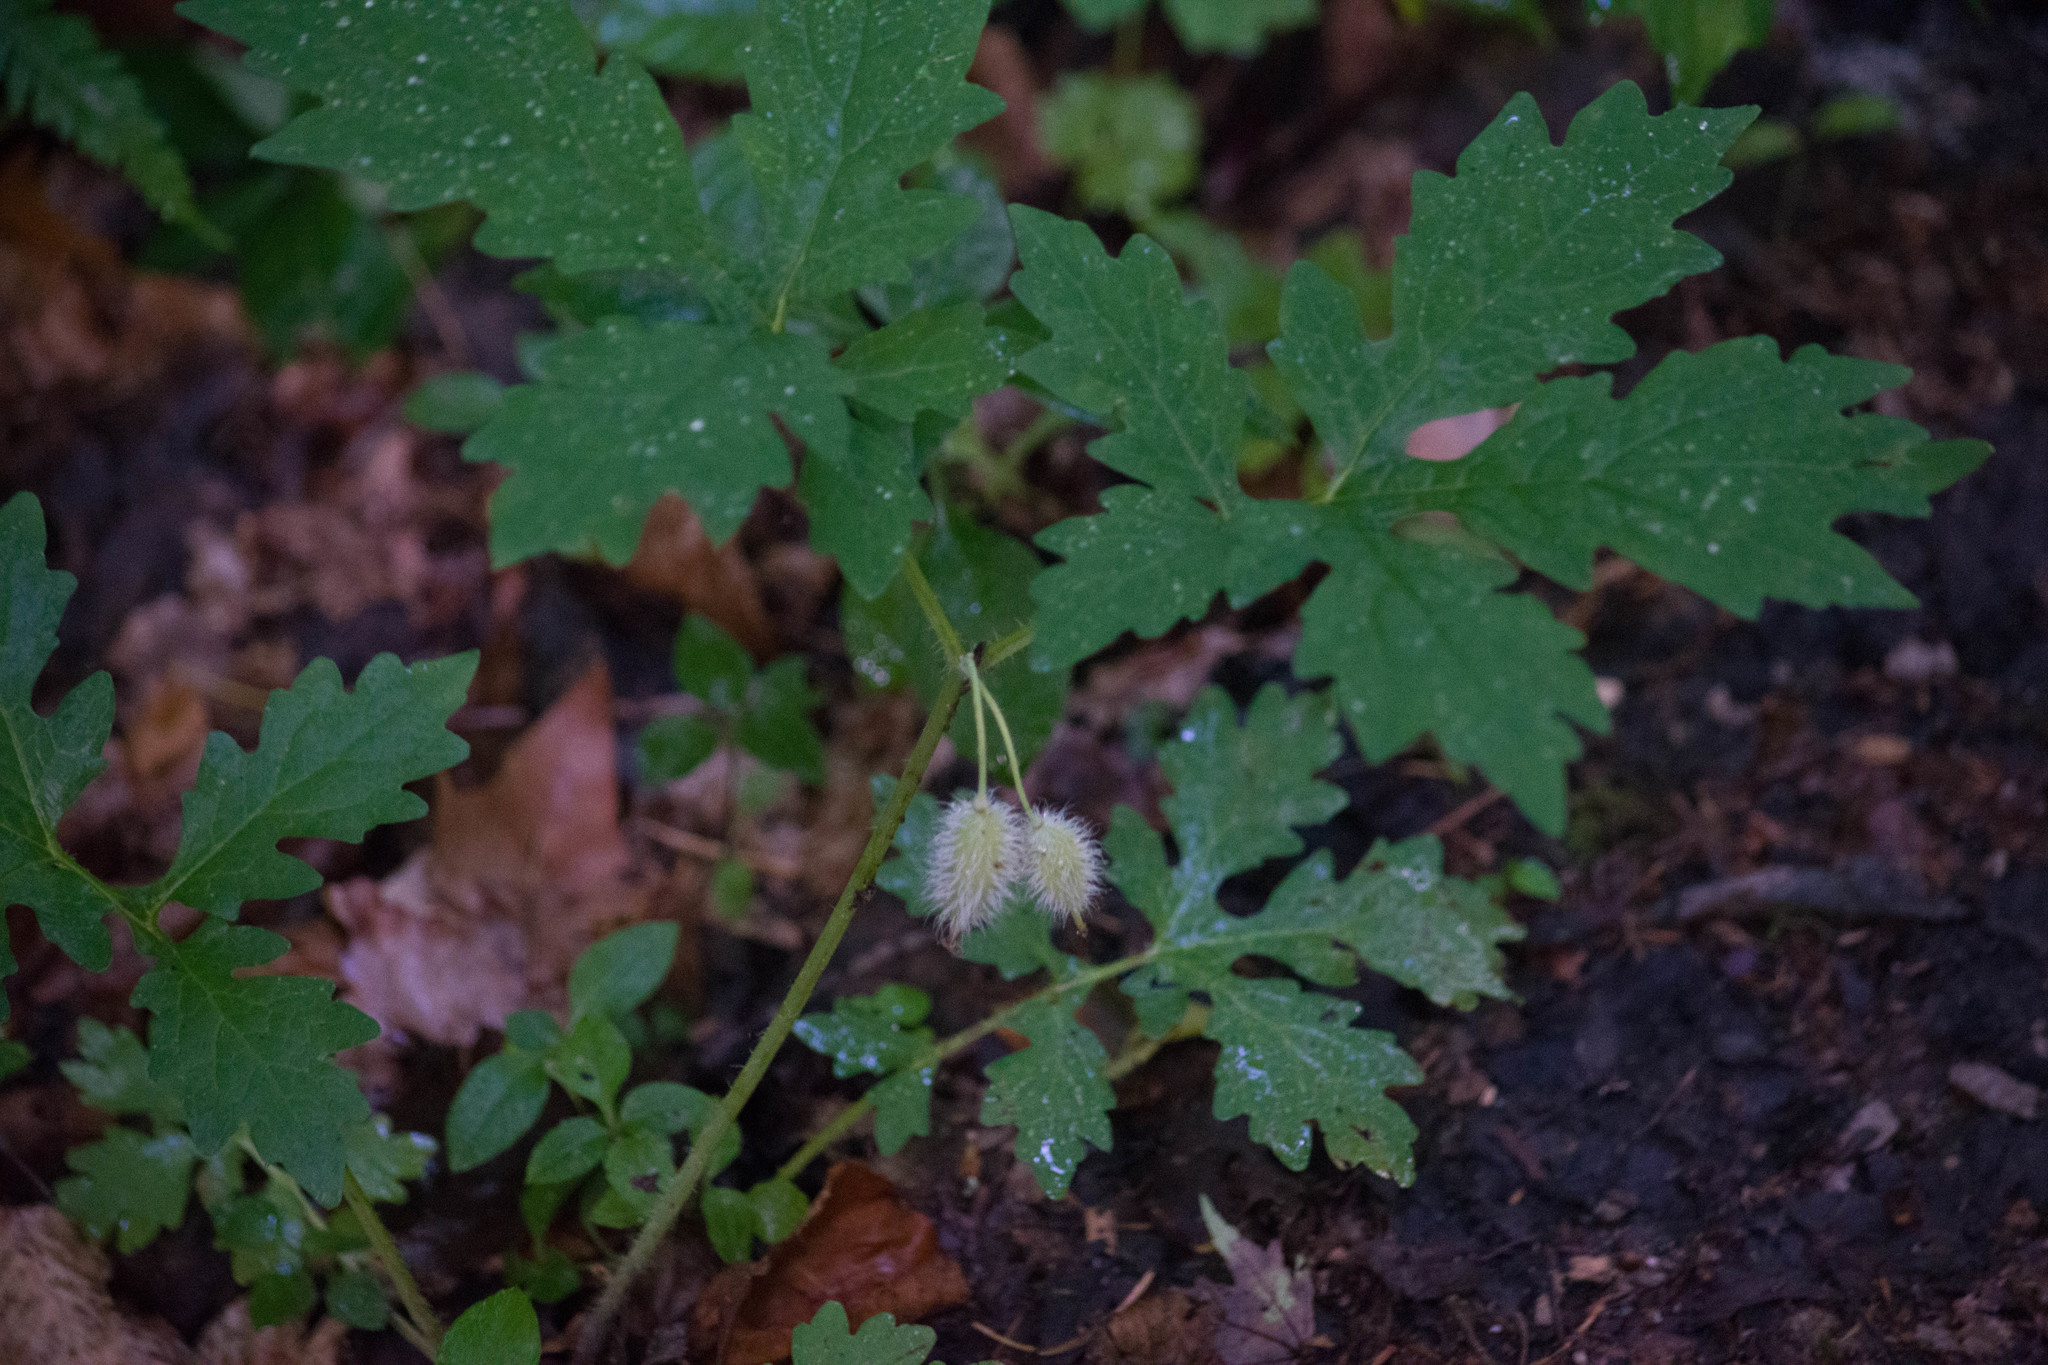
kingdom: Plantae
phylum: Tracheophyta
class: Magnoliopsida
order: Ranunculales
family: Papaveraceae
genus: Stylophorum
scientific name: Stylophorum diphyllum
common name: Celandine poppy
